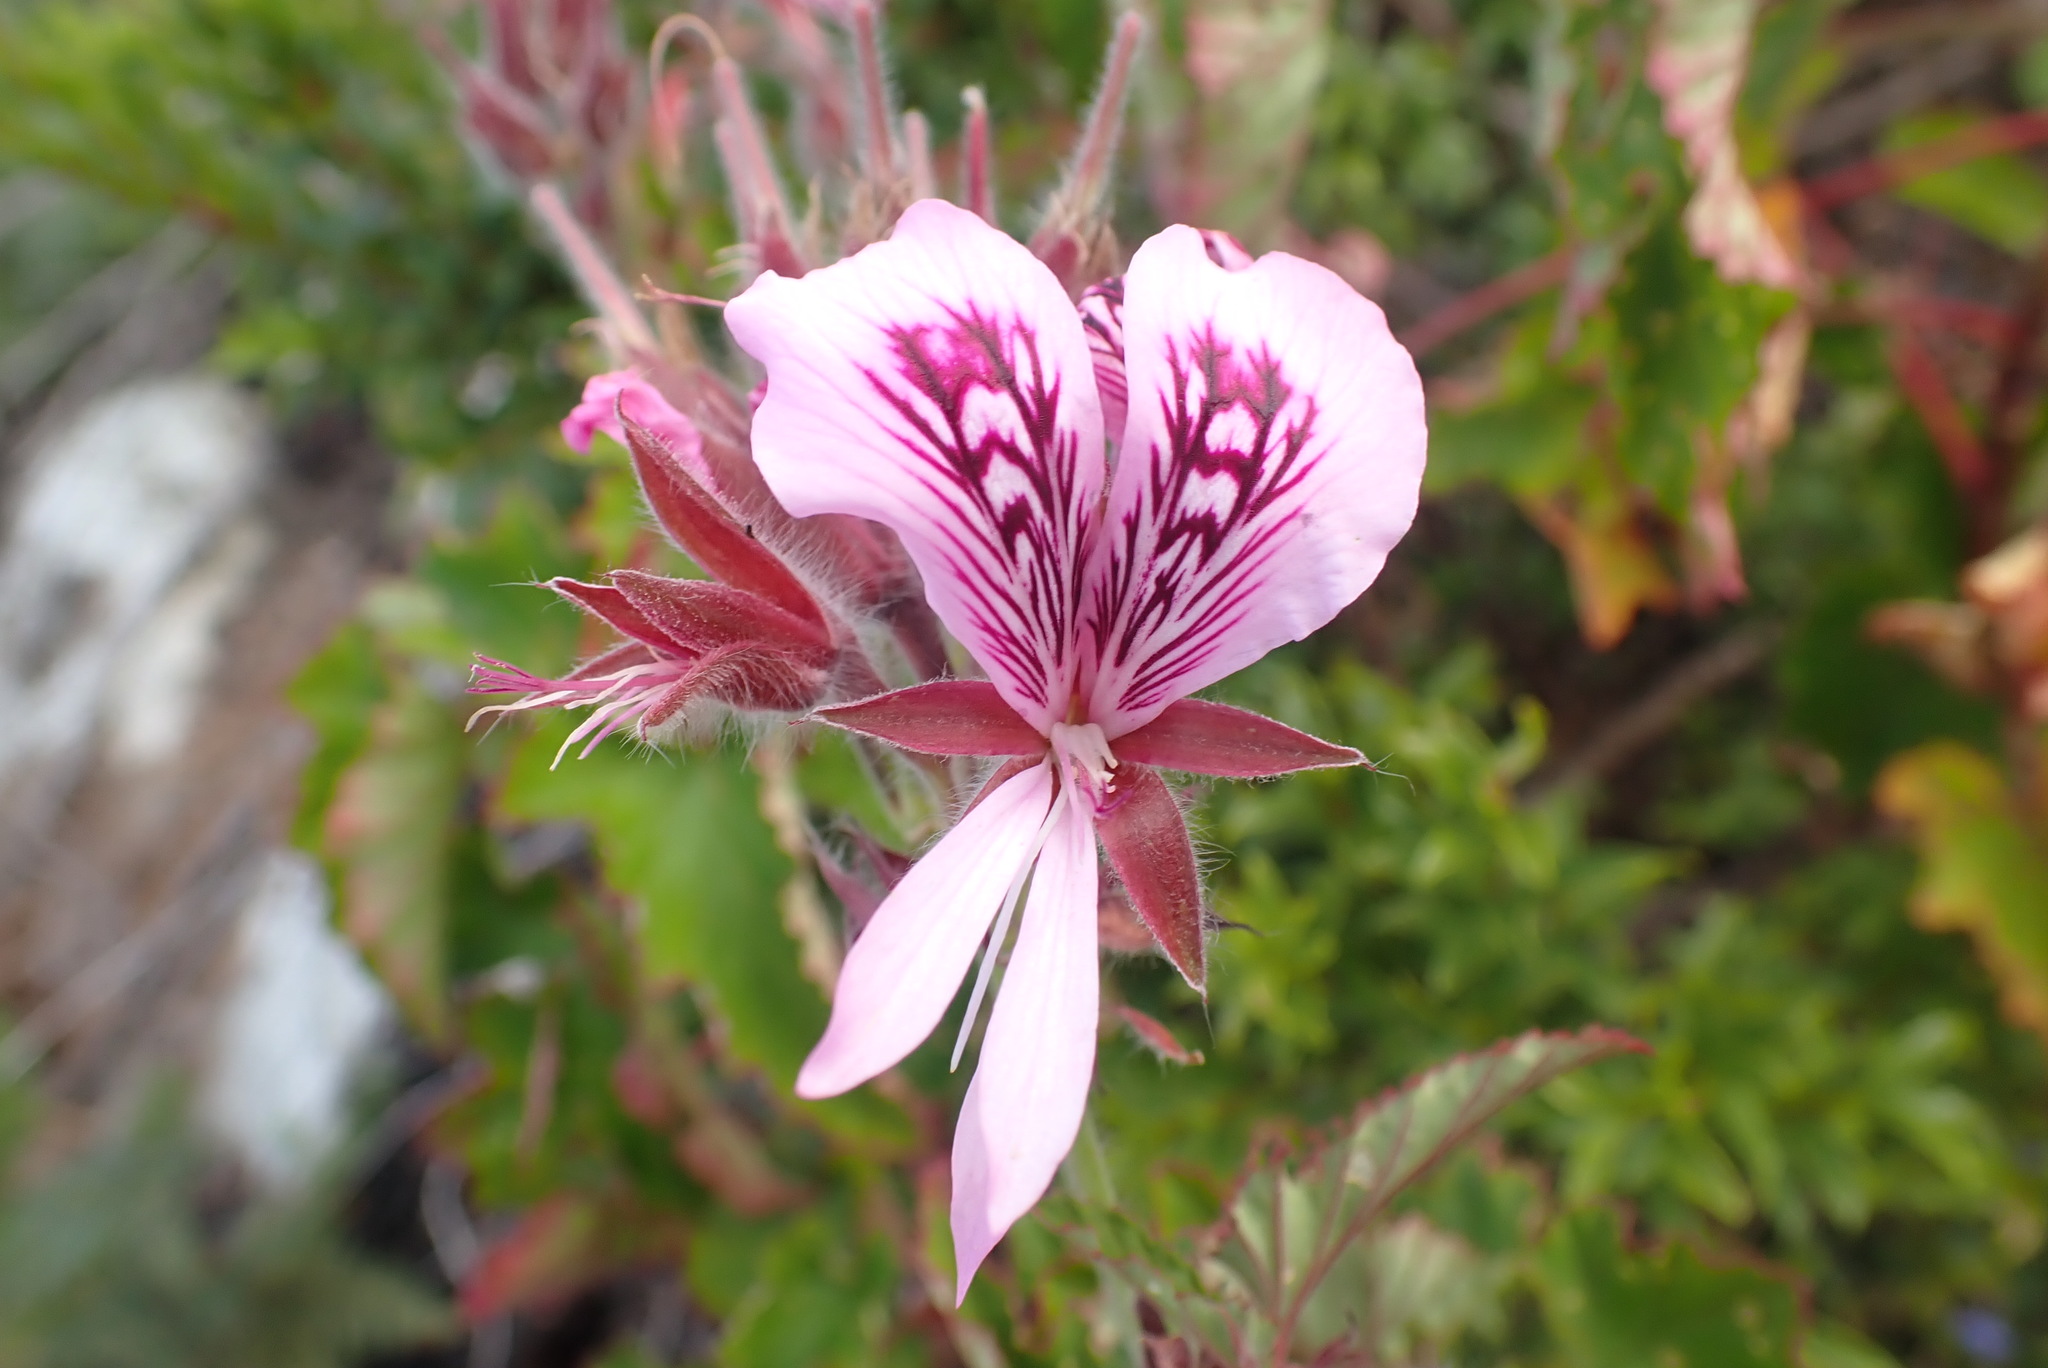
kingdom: Plantae
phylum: Tracheophyta
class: Magnoliopsida
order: Geraniales
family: Geraniaceae
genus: Pelargonium
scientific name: Pelargonium cordifolium
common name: Heart-leaf pelargonium
